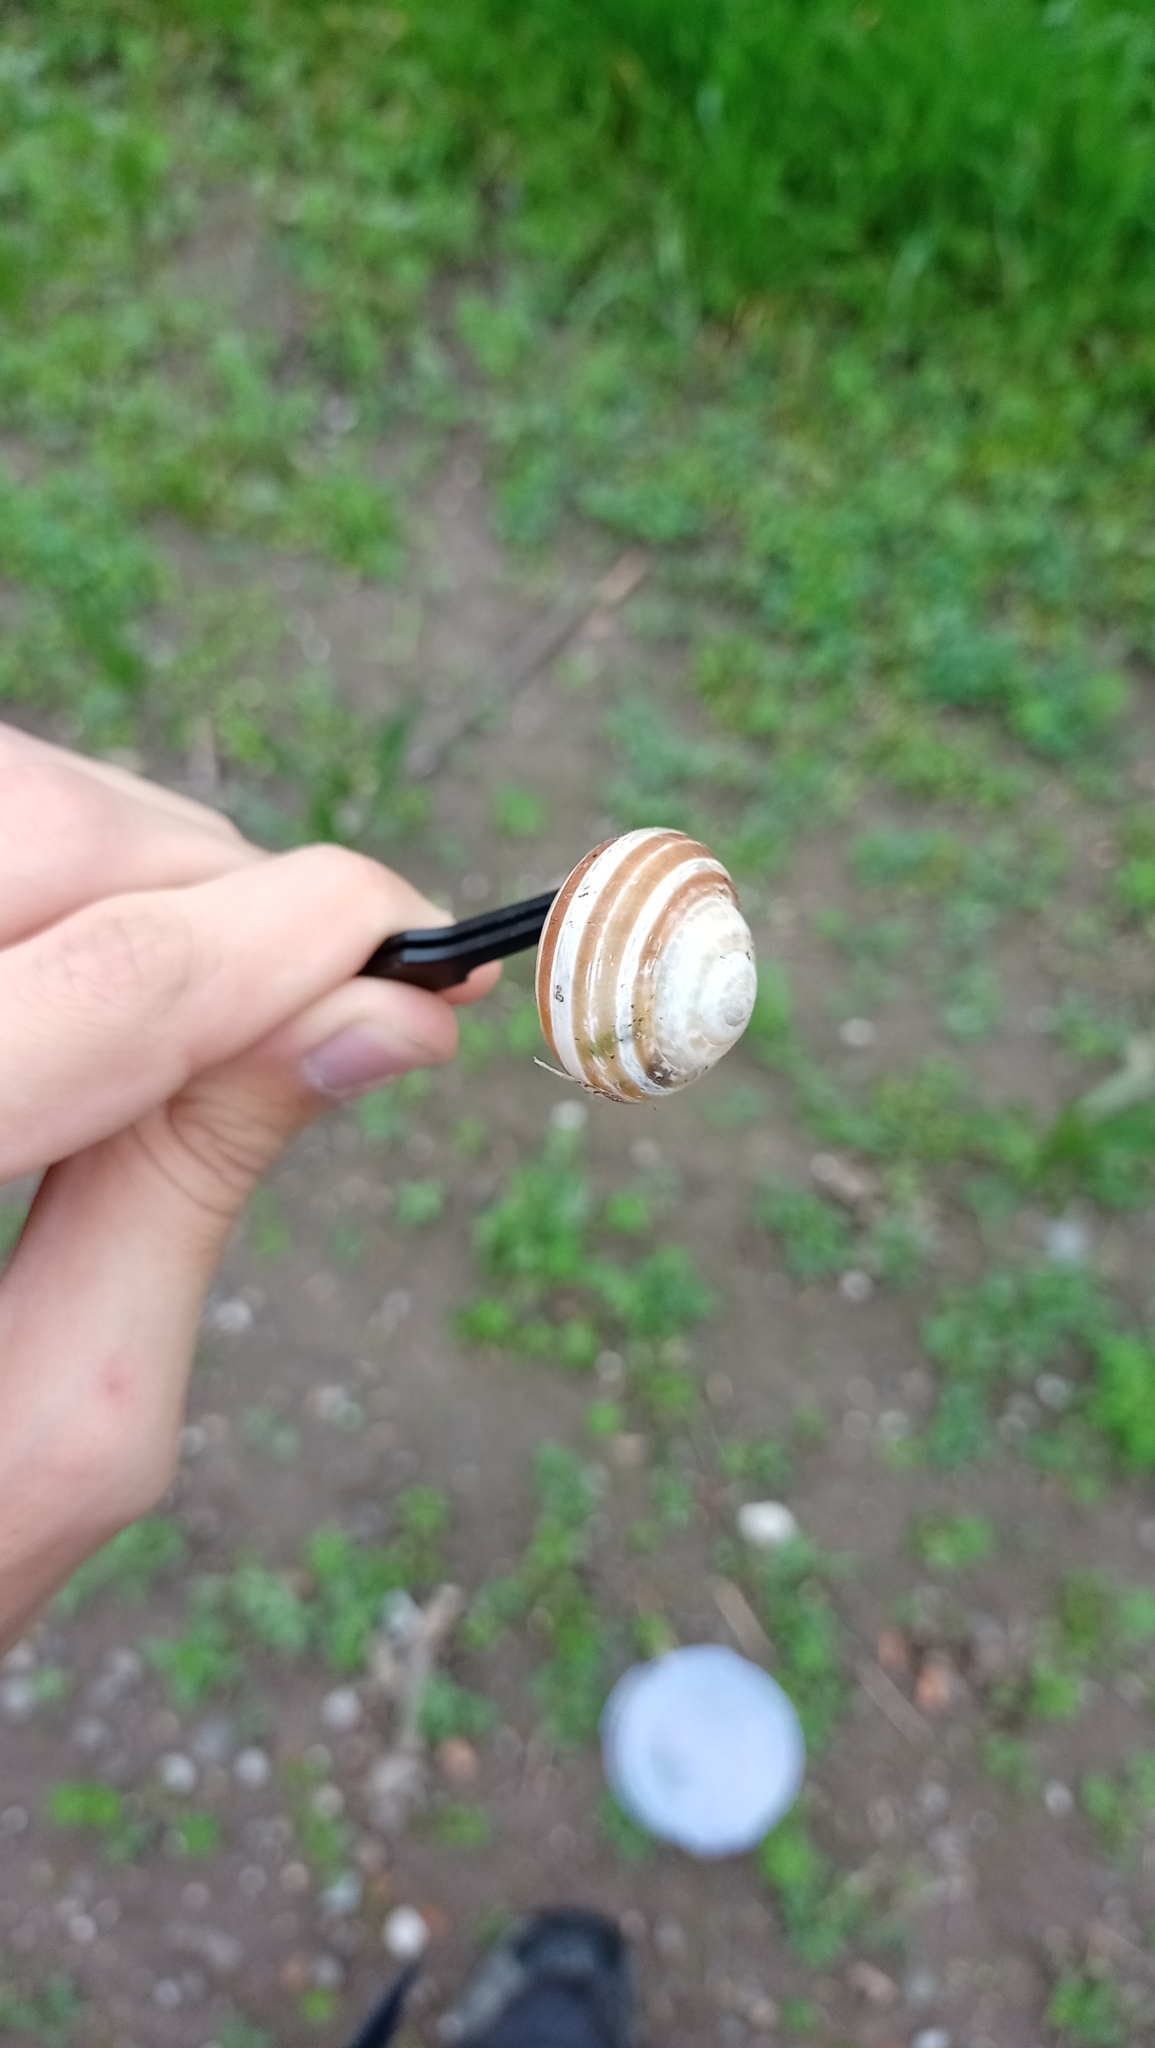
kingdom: Animalia
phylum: Mollusca
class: Gastropoda
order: Stylommatophora
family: Helicidae
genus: Eobania
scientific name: Eobania vermiculata
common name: Chocolateband snail
